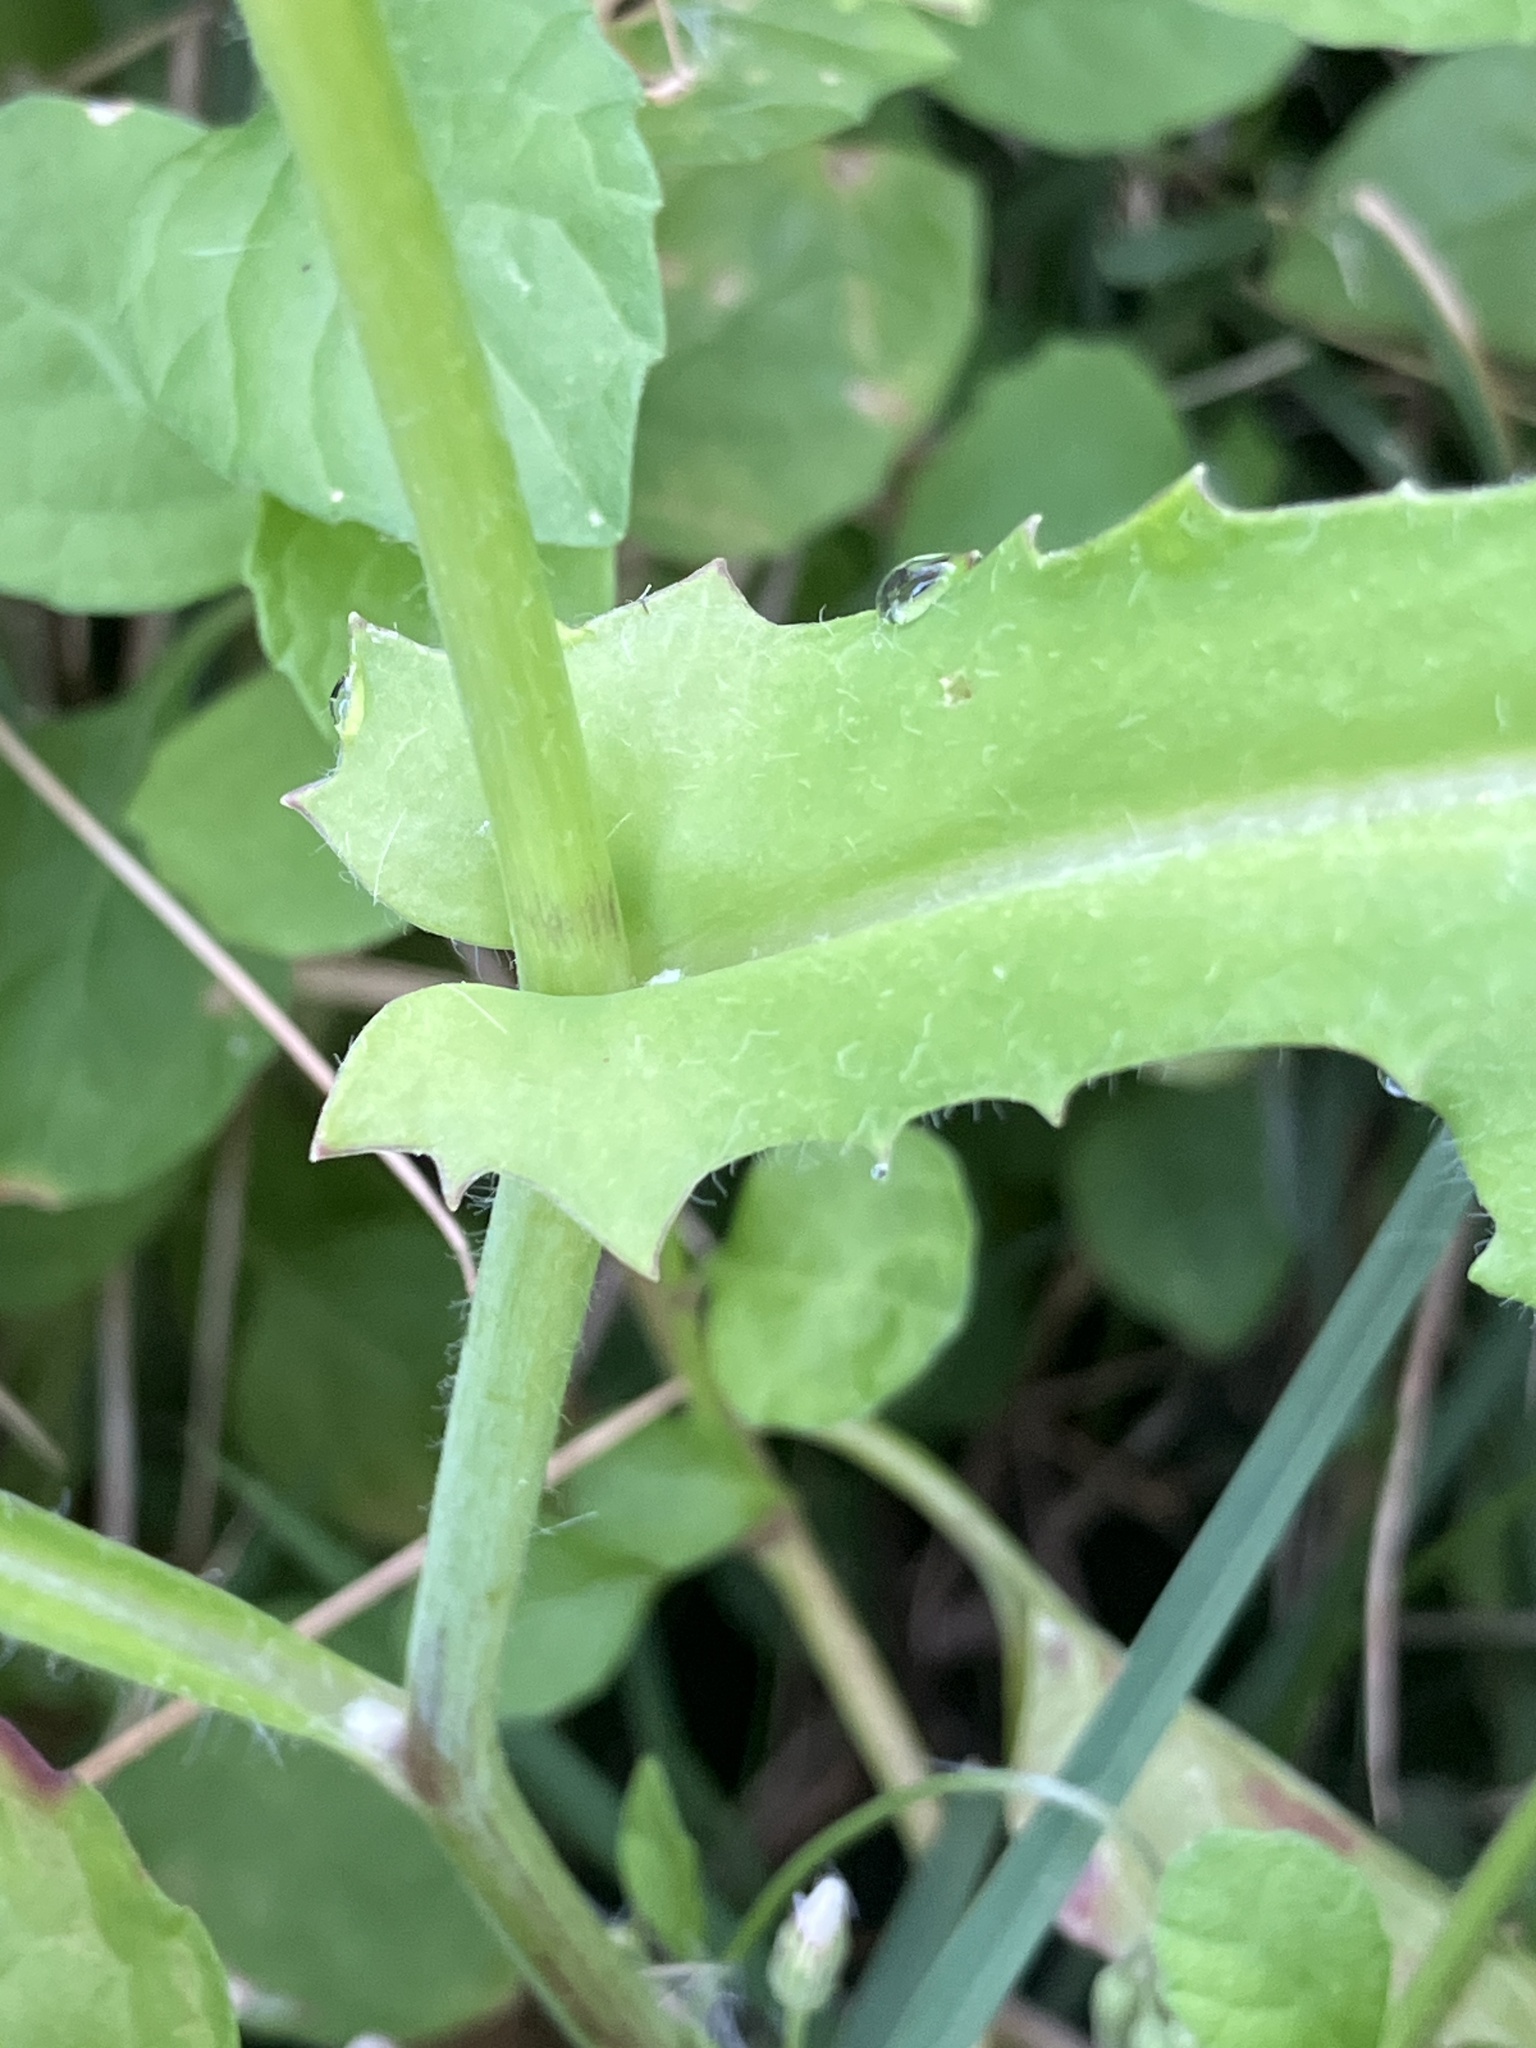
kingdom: Plantae
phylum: Tracheophyta
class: Magnoliopsida
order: Asterales
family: Asteraceae
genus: Emilia
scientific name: Emilia praetermissa
